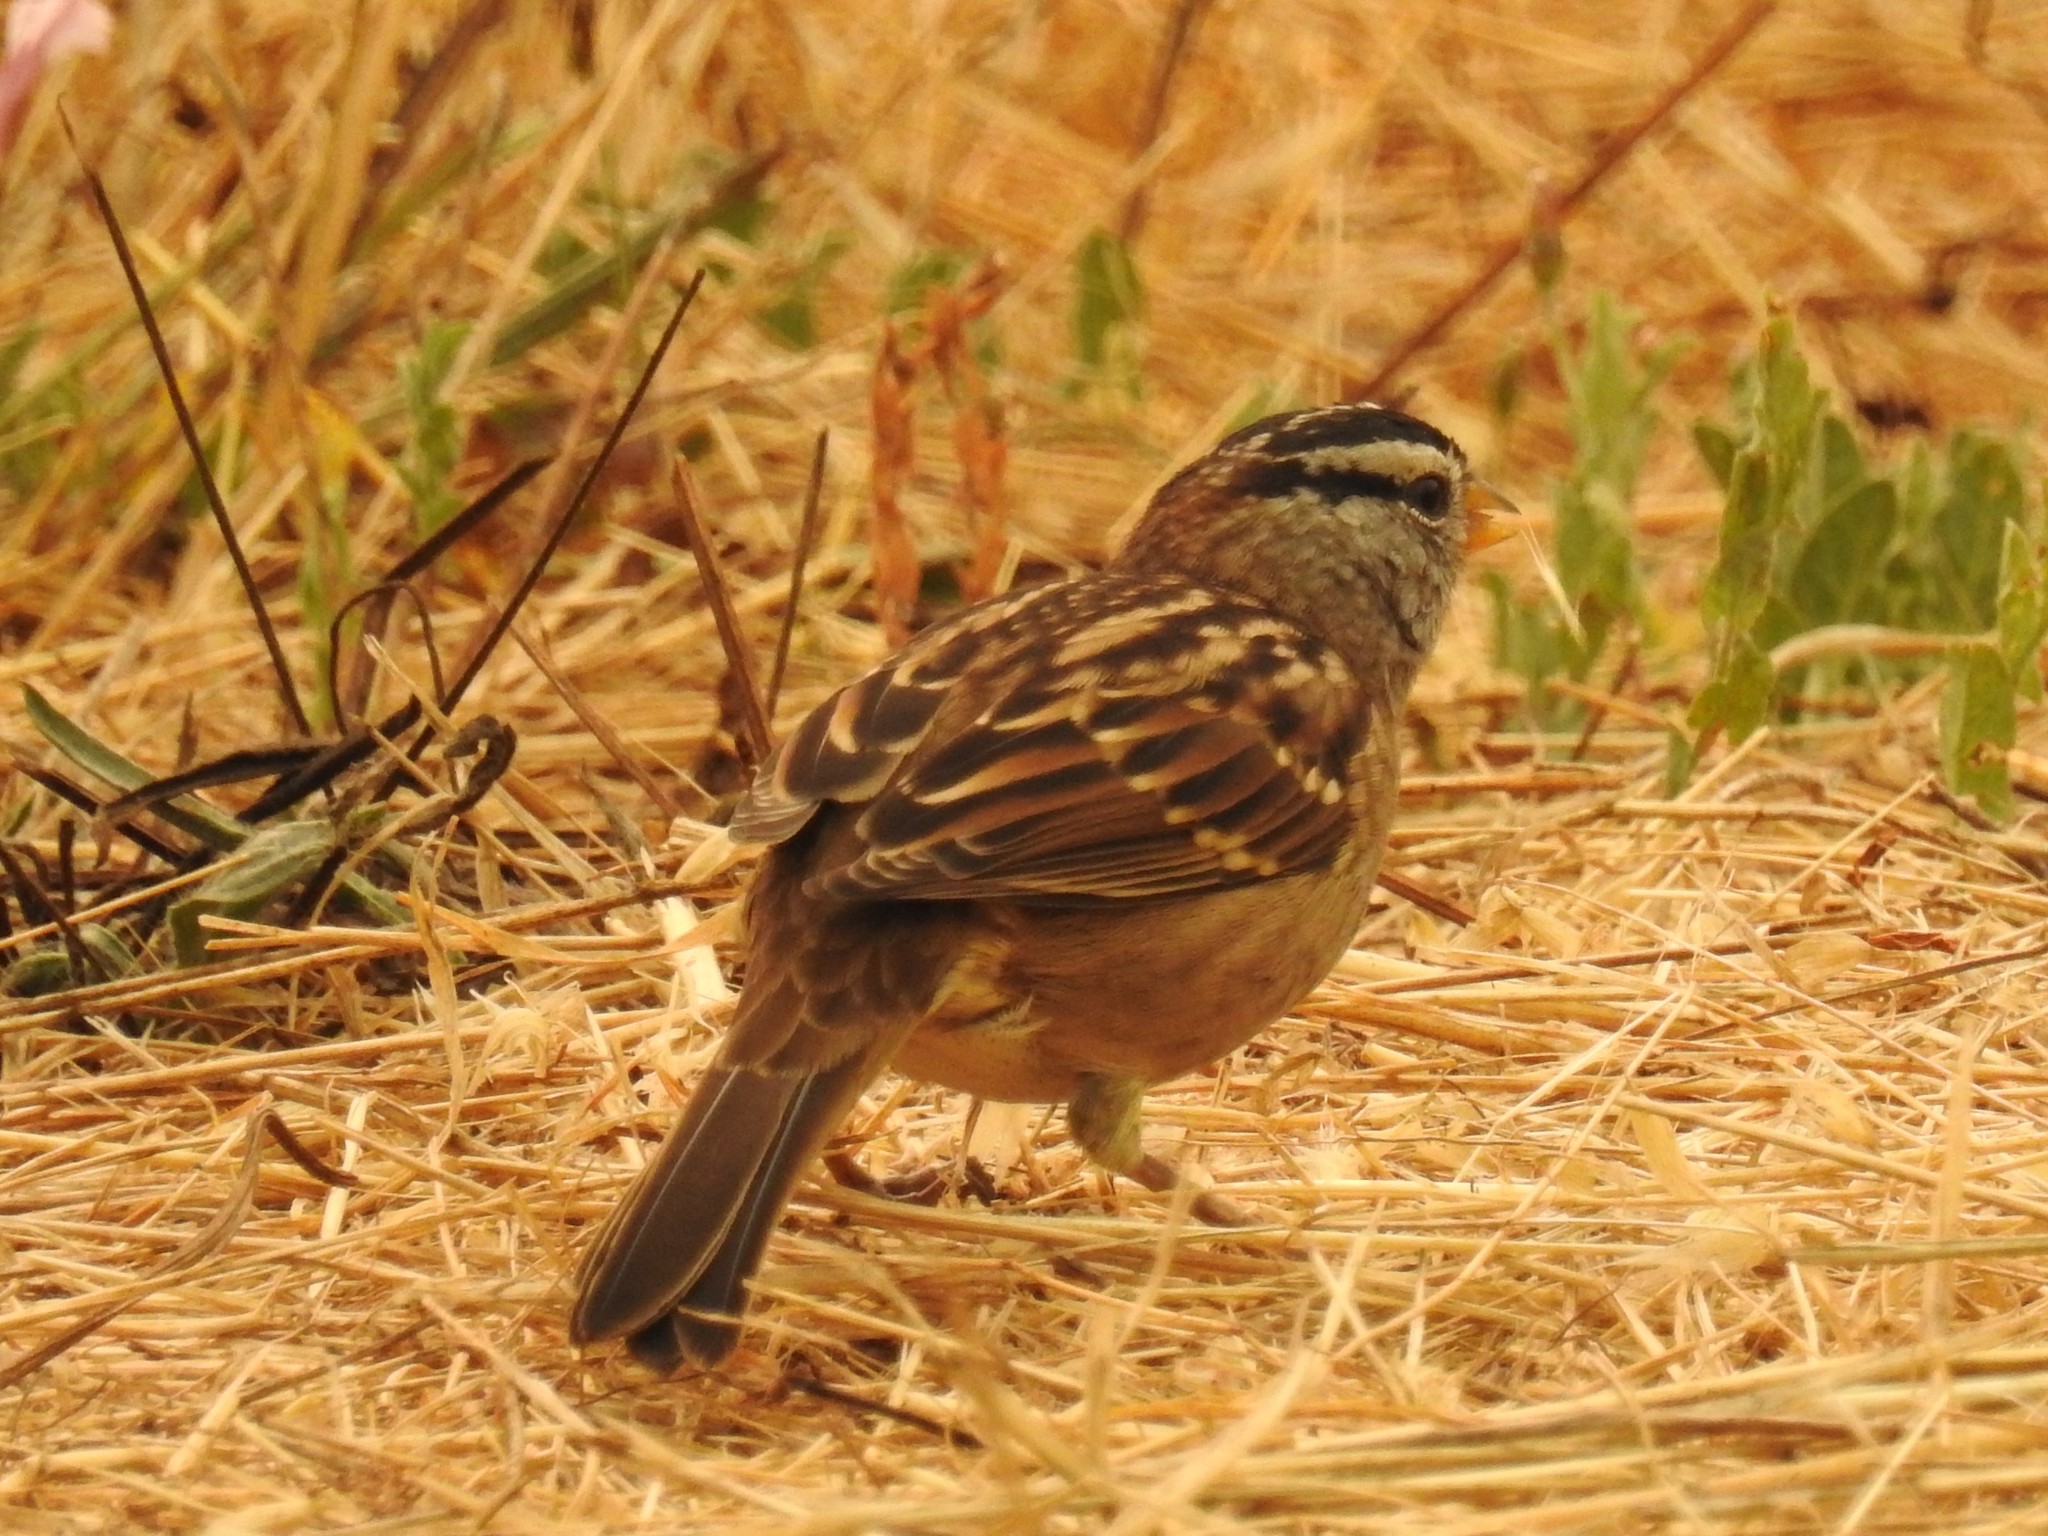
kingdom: Animalia
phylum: Chordata
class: Aves
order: Passeriformes
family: Passerellidae
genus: Zonotrichia
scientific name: Zonotrichia leucophrys
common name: White-crowned sparrow
